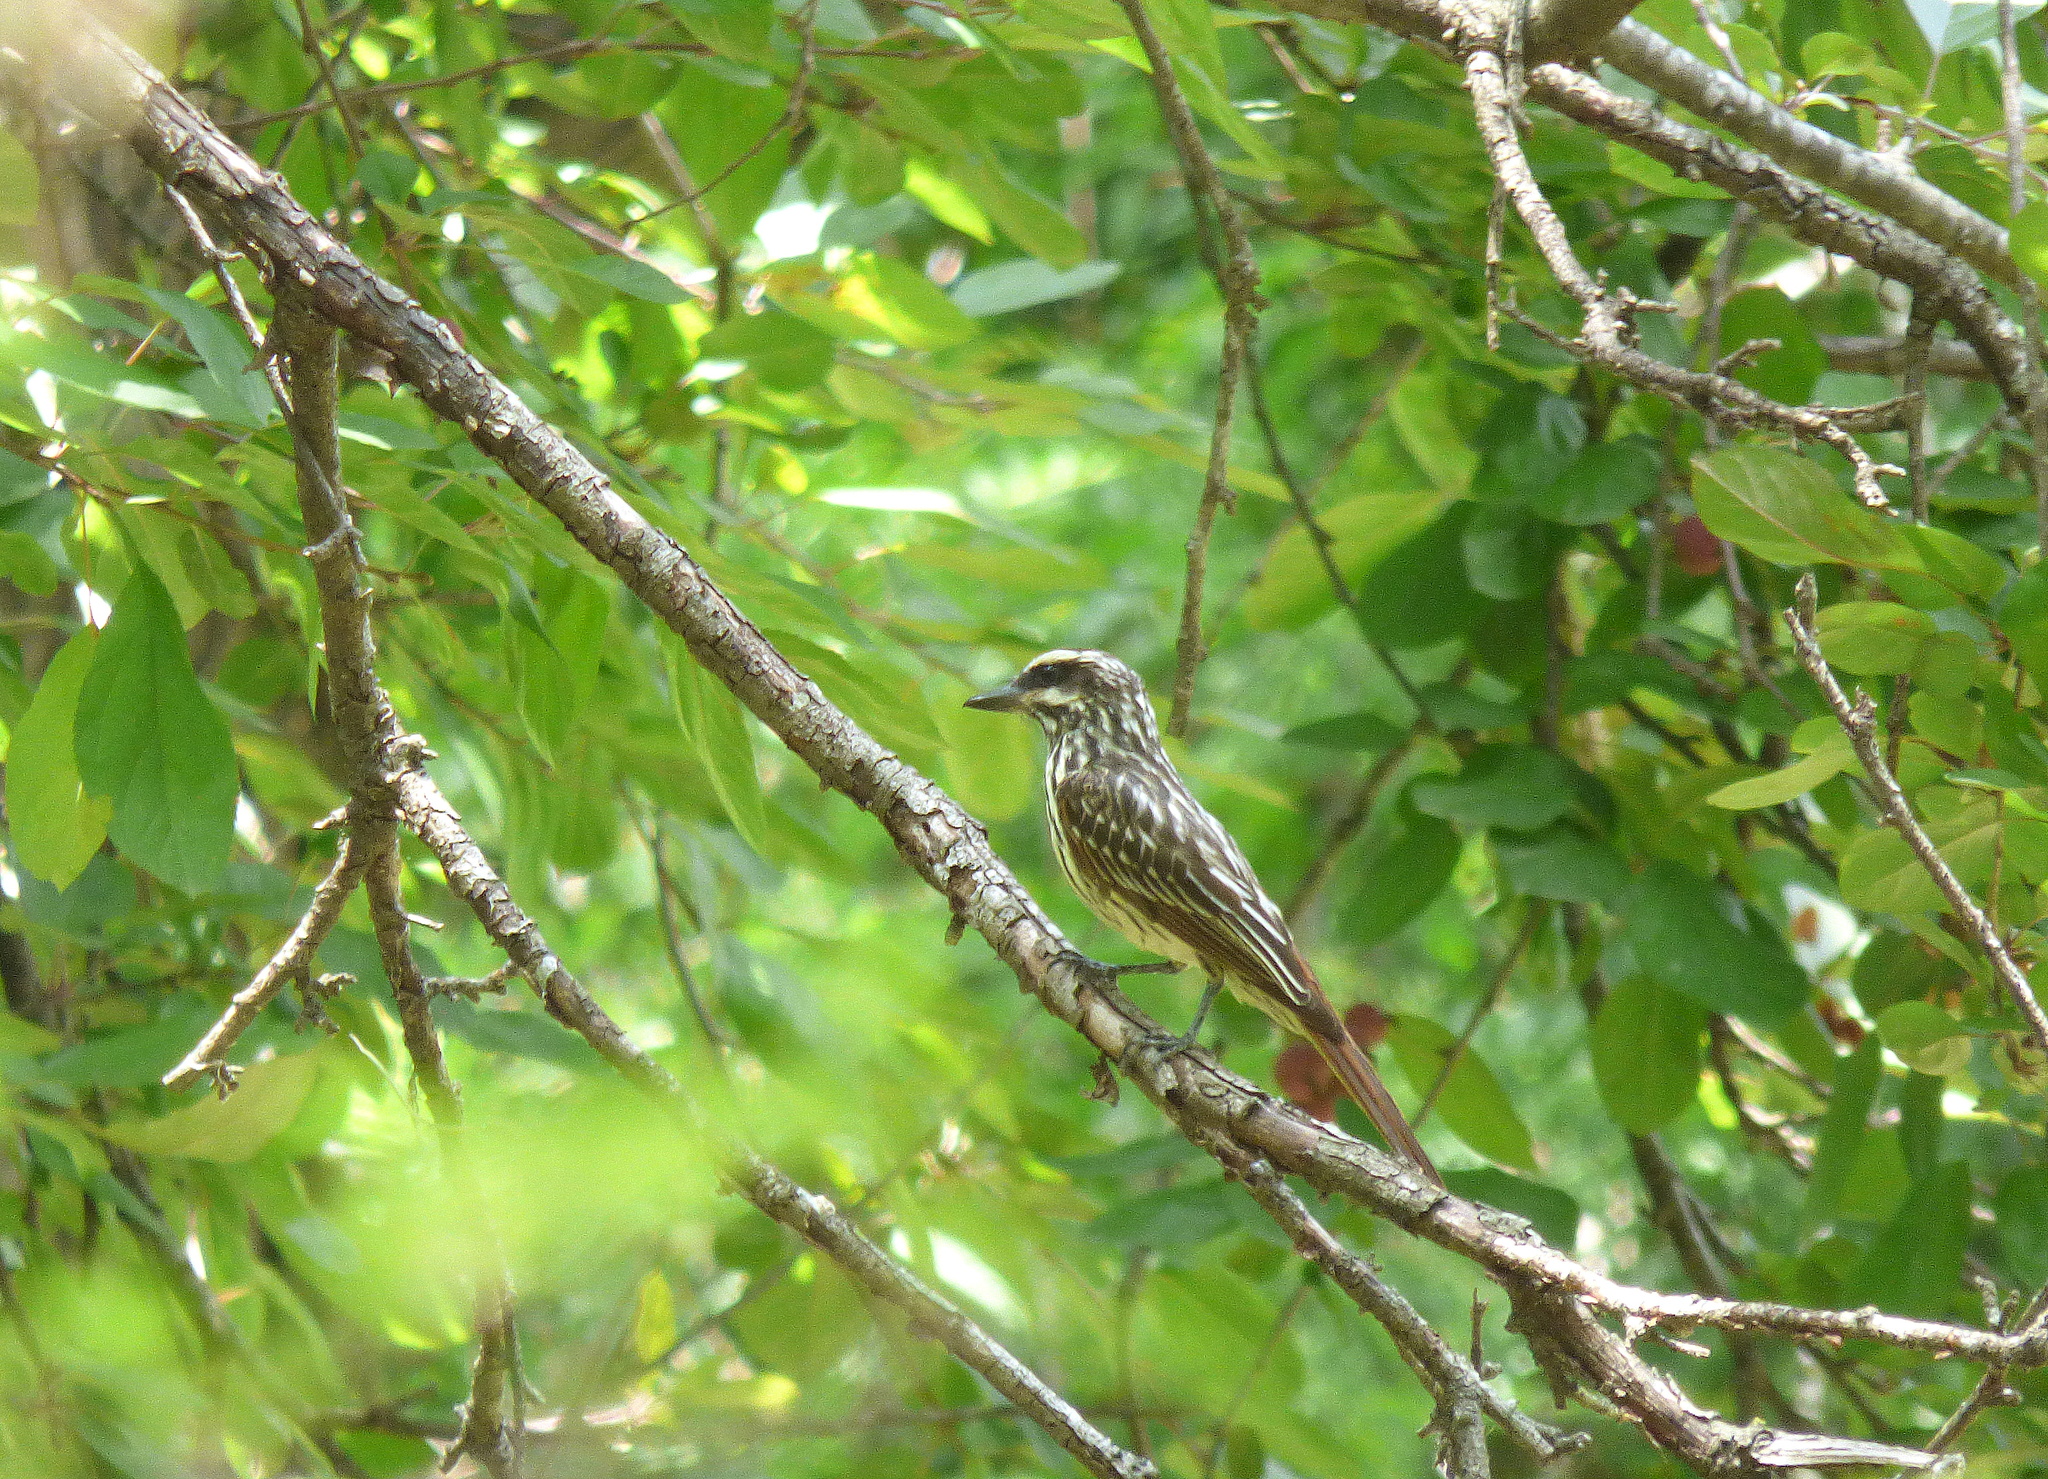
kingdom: Animalia
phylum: Chordata
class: Aves
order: Passeriformes
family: Tyrannidae
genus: Myiodynastes
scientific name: Myiodynastes maculatus
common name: Streaked flycatcher
